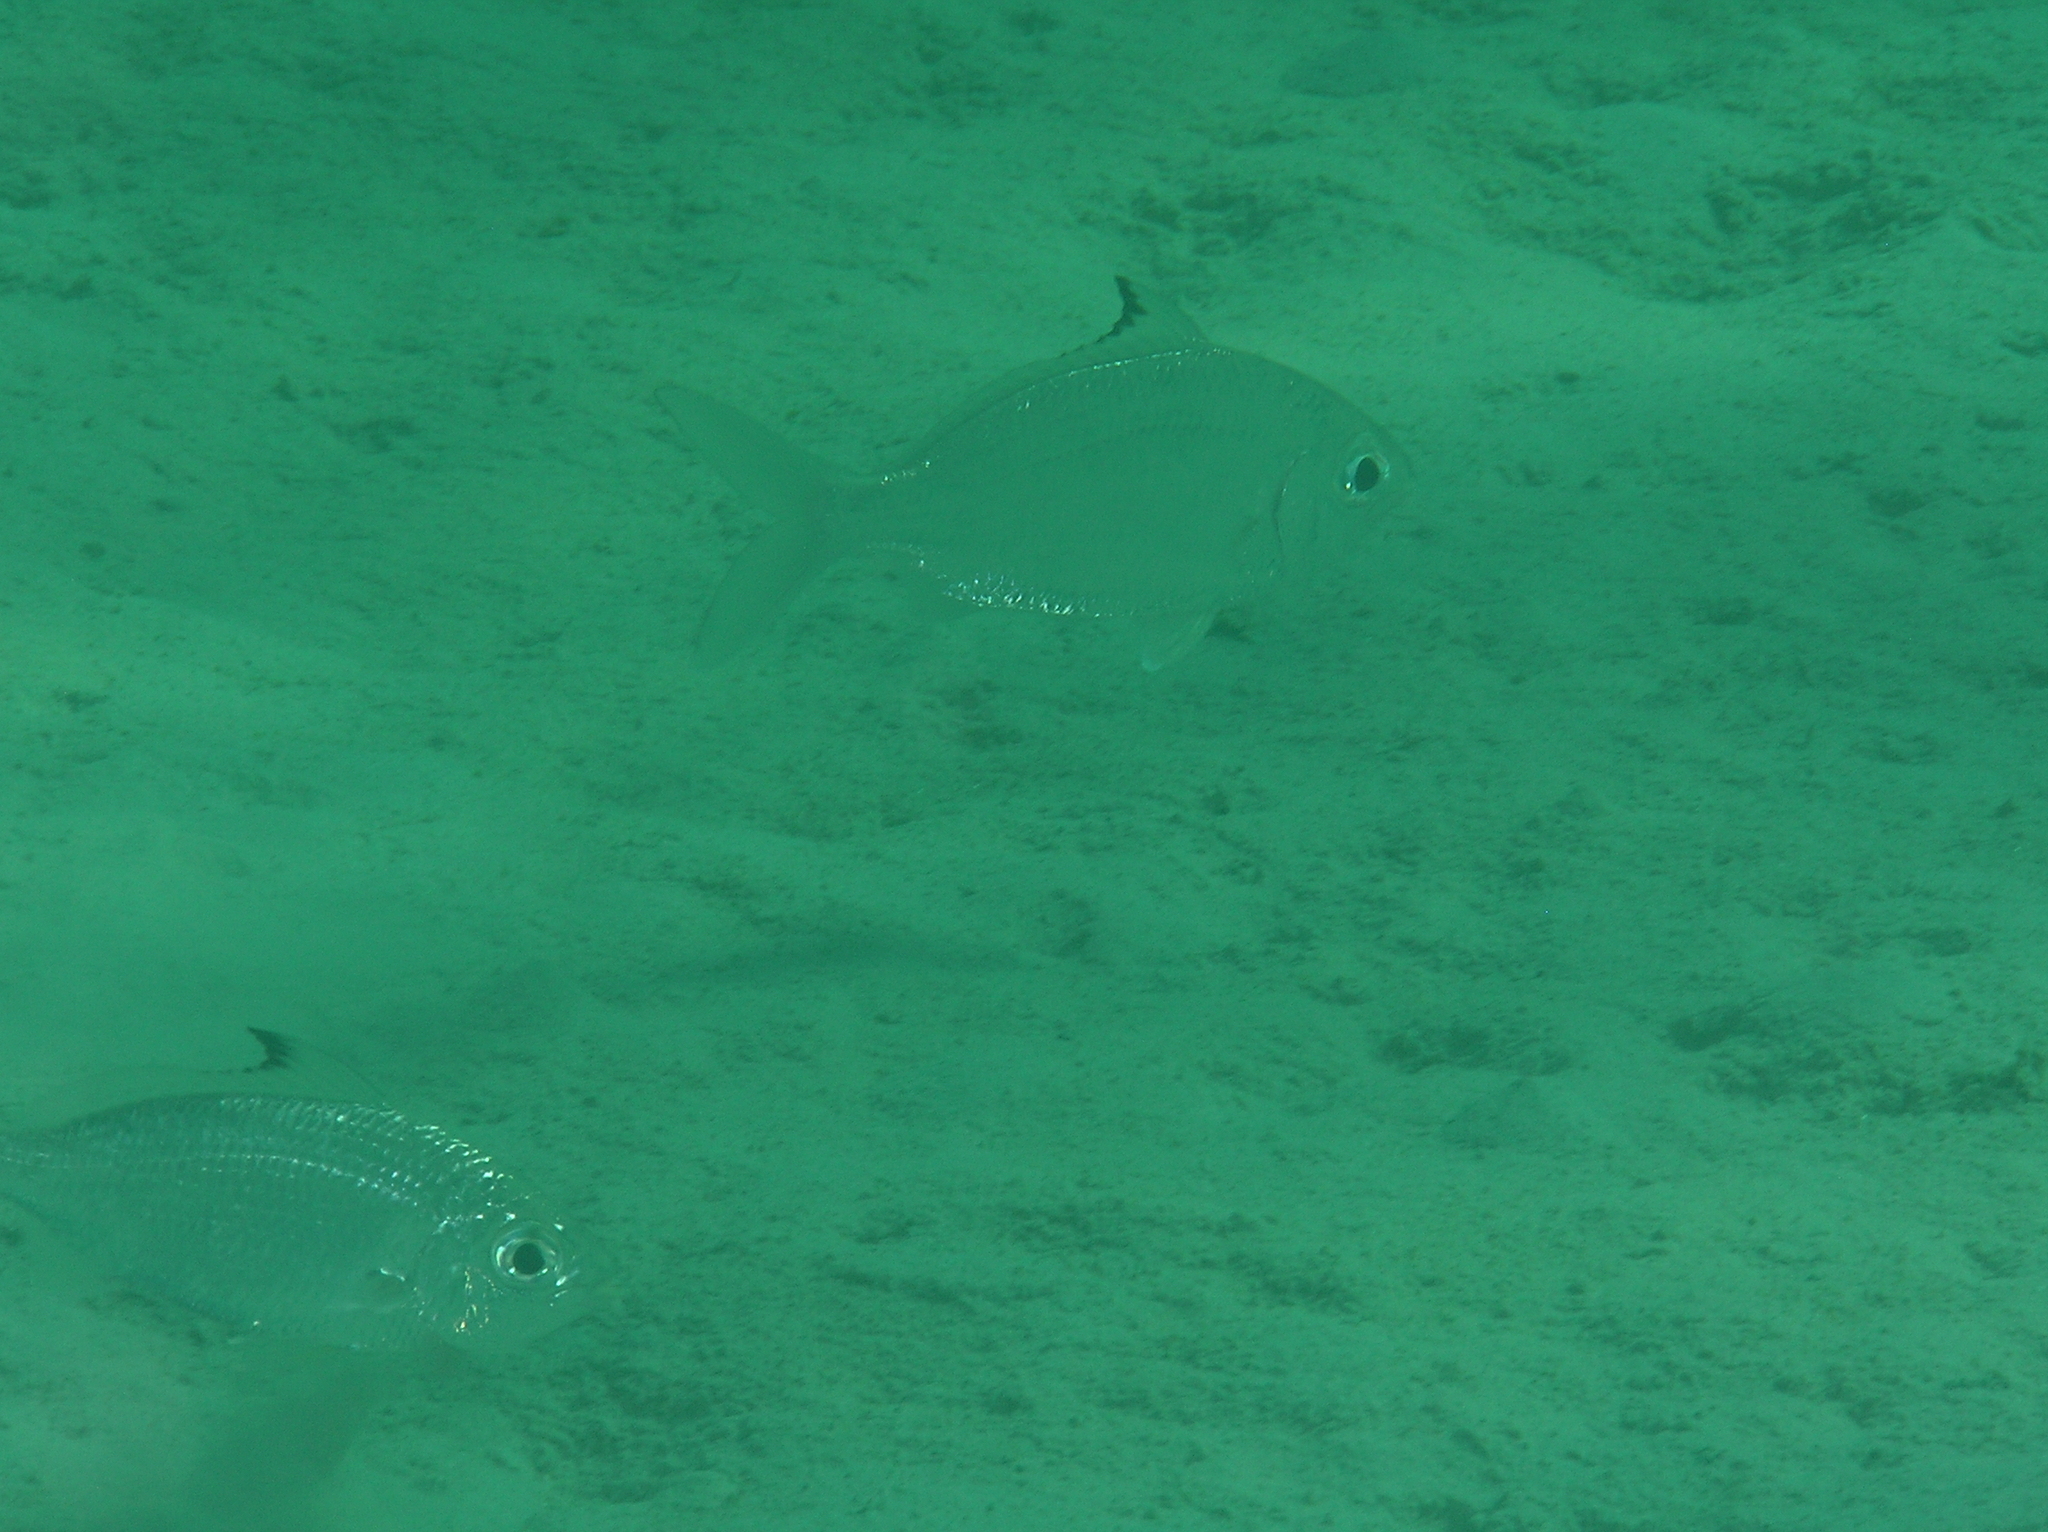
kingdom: Animalia
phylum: Chordata
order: Perciformes
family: Gerreidae
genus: Gerres
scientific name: Gerres oyena
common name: Common silver-biddy
